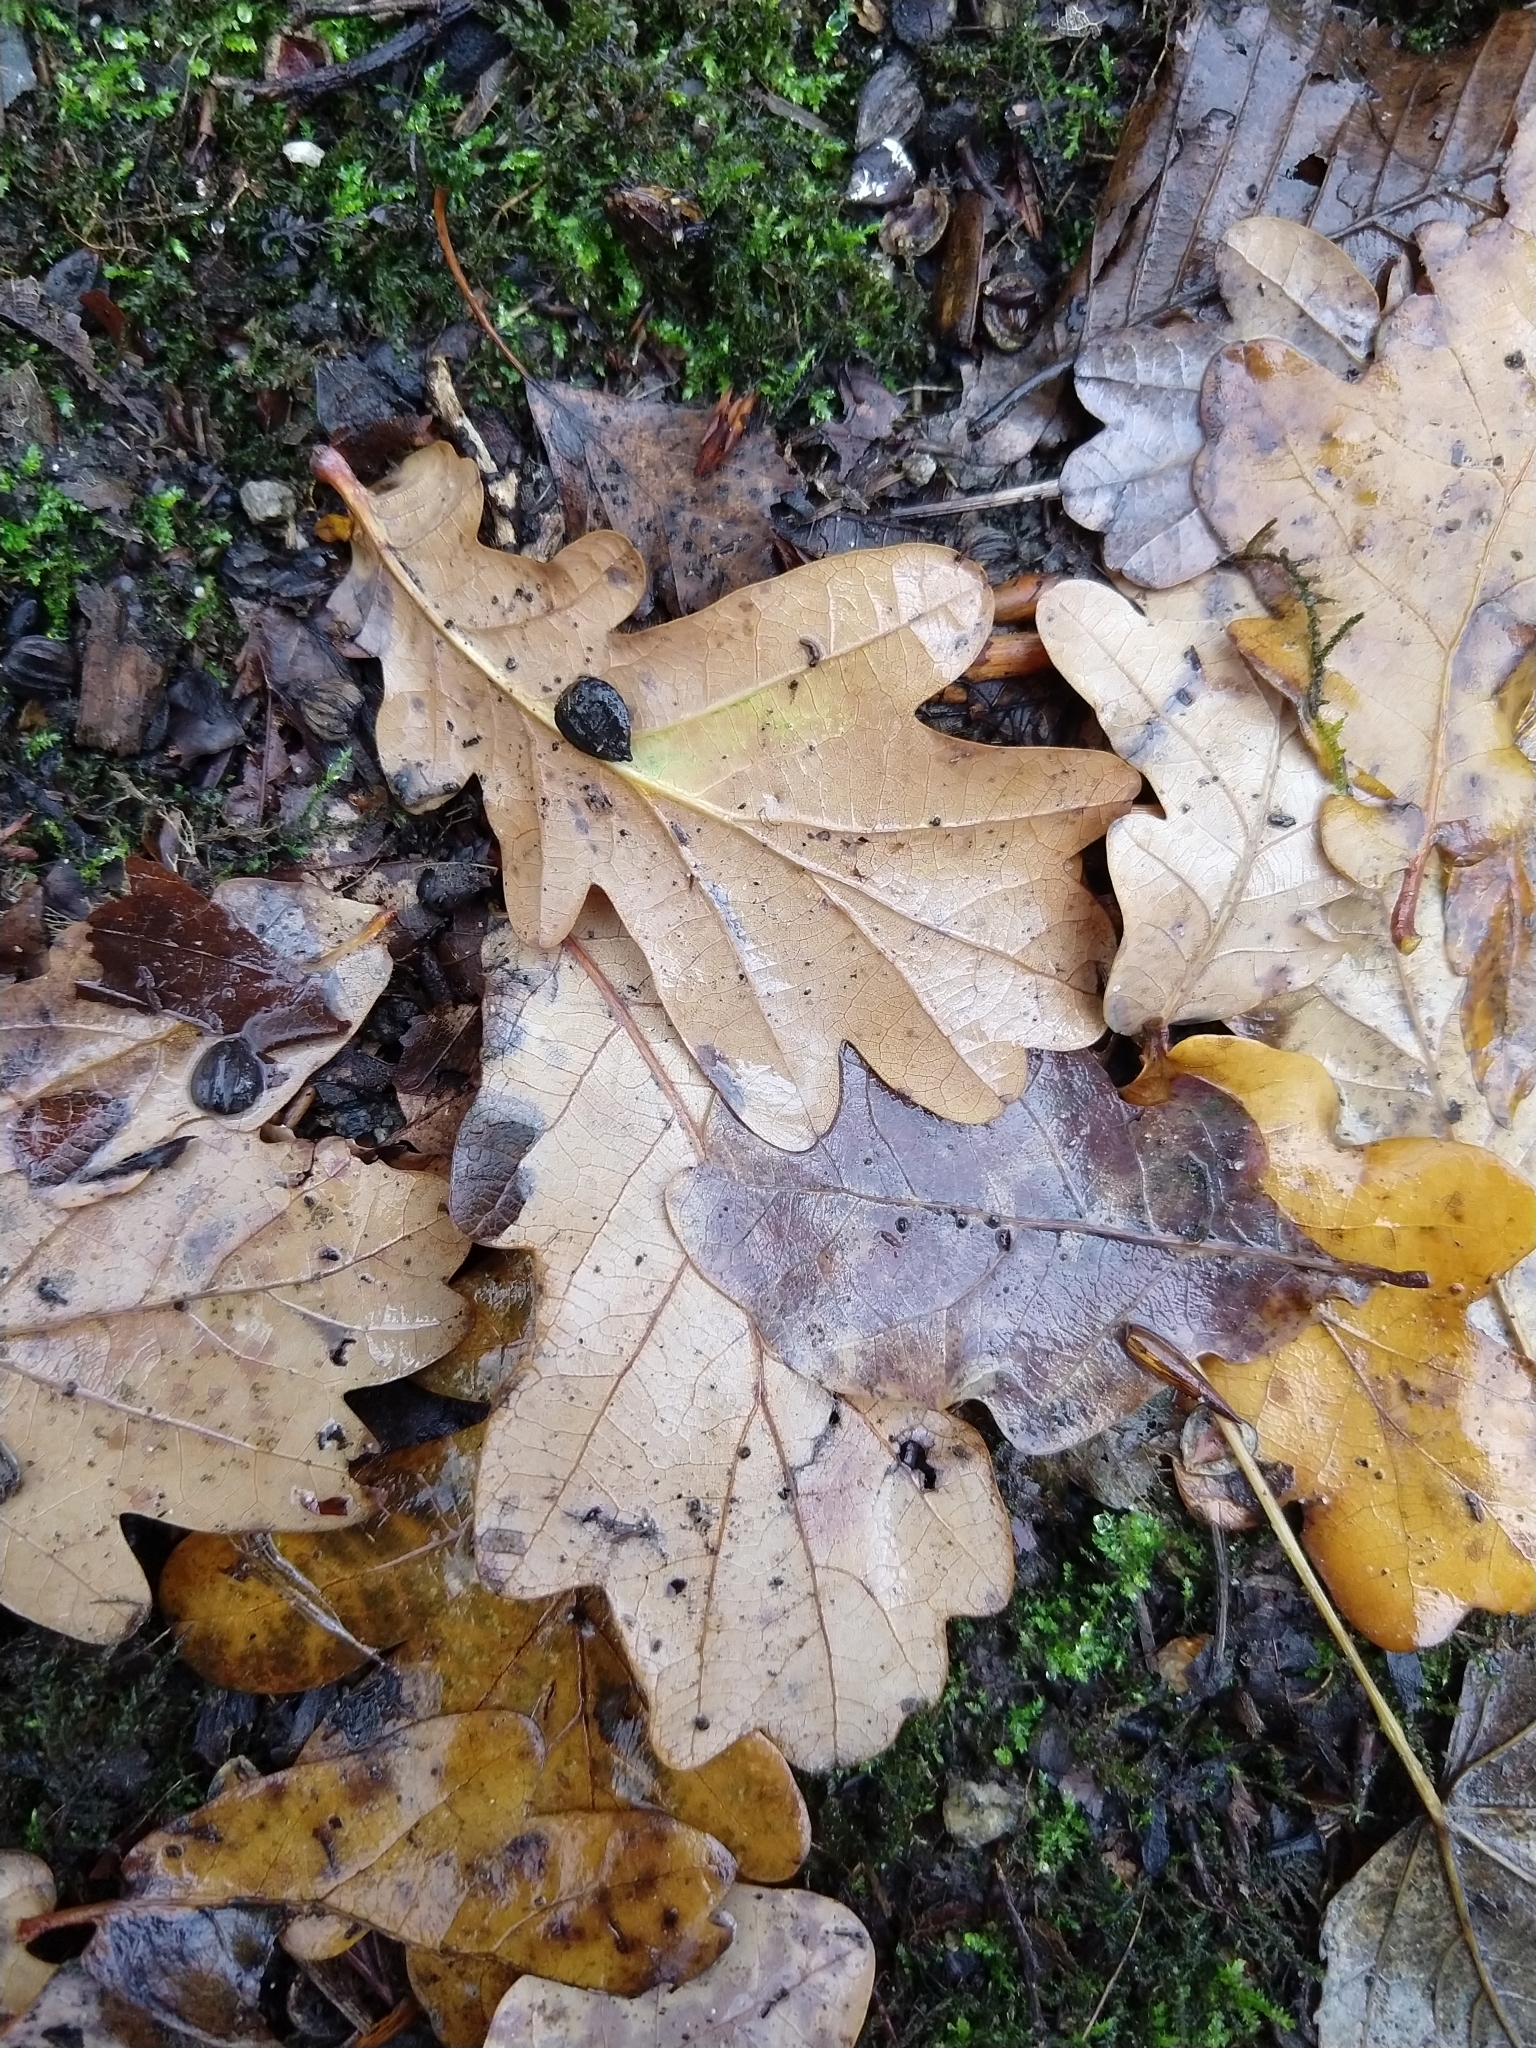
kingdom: Plantae
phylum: Tracheophyta
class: Magnoliopsida
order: Fagales
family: Fagaceae
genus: Quercus
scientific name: Quercus robur
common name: Pedunculate oak
